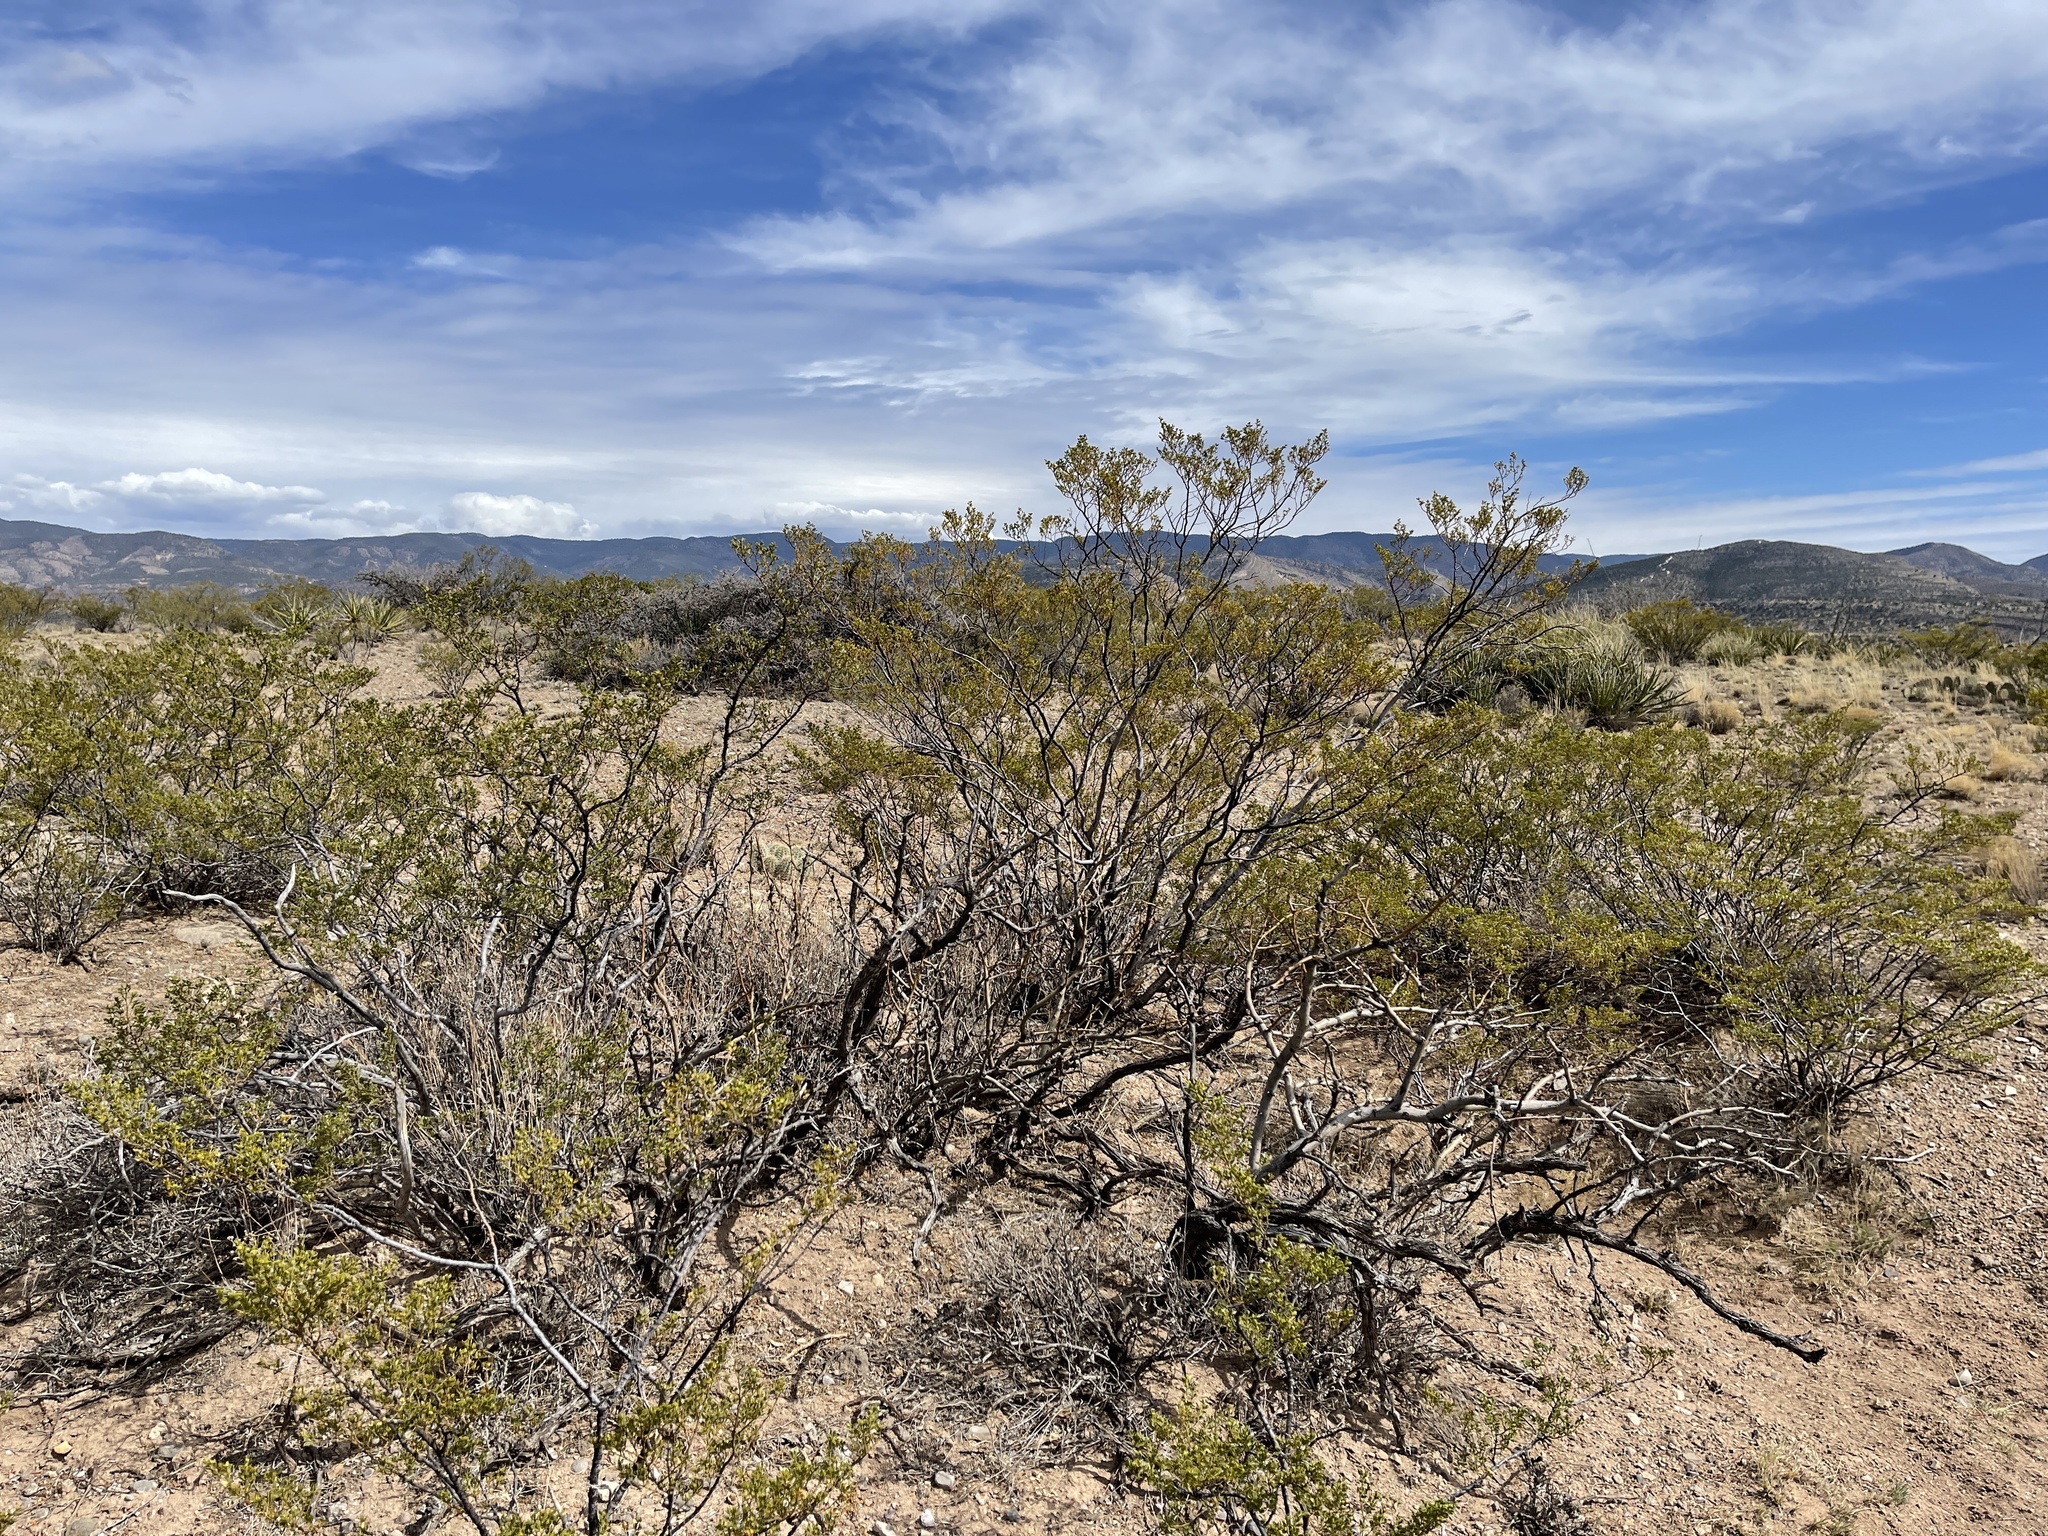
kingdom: Plantae
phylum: Tracheophyta
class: Magnoliopsida
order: Zygophyllales
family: Zygophyllaceae
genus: Larrea
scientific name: Larrea tridentata
